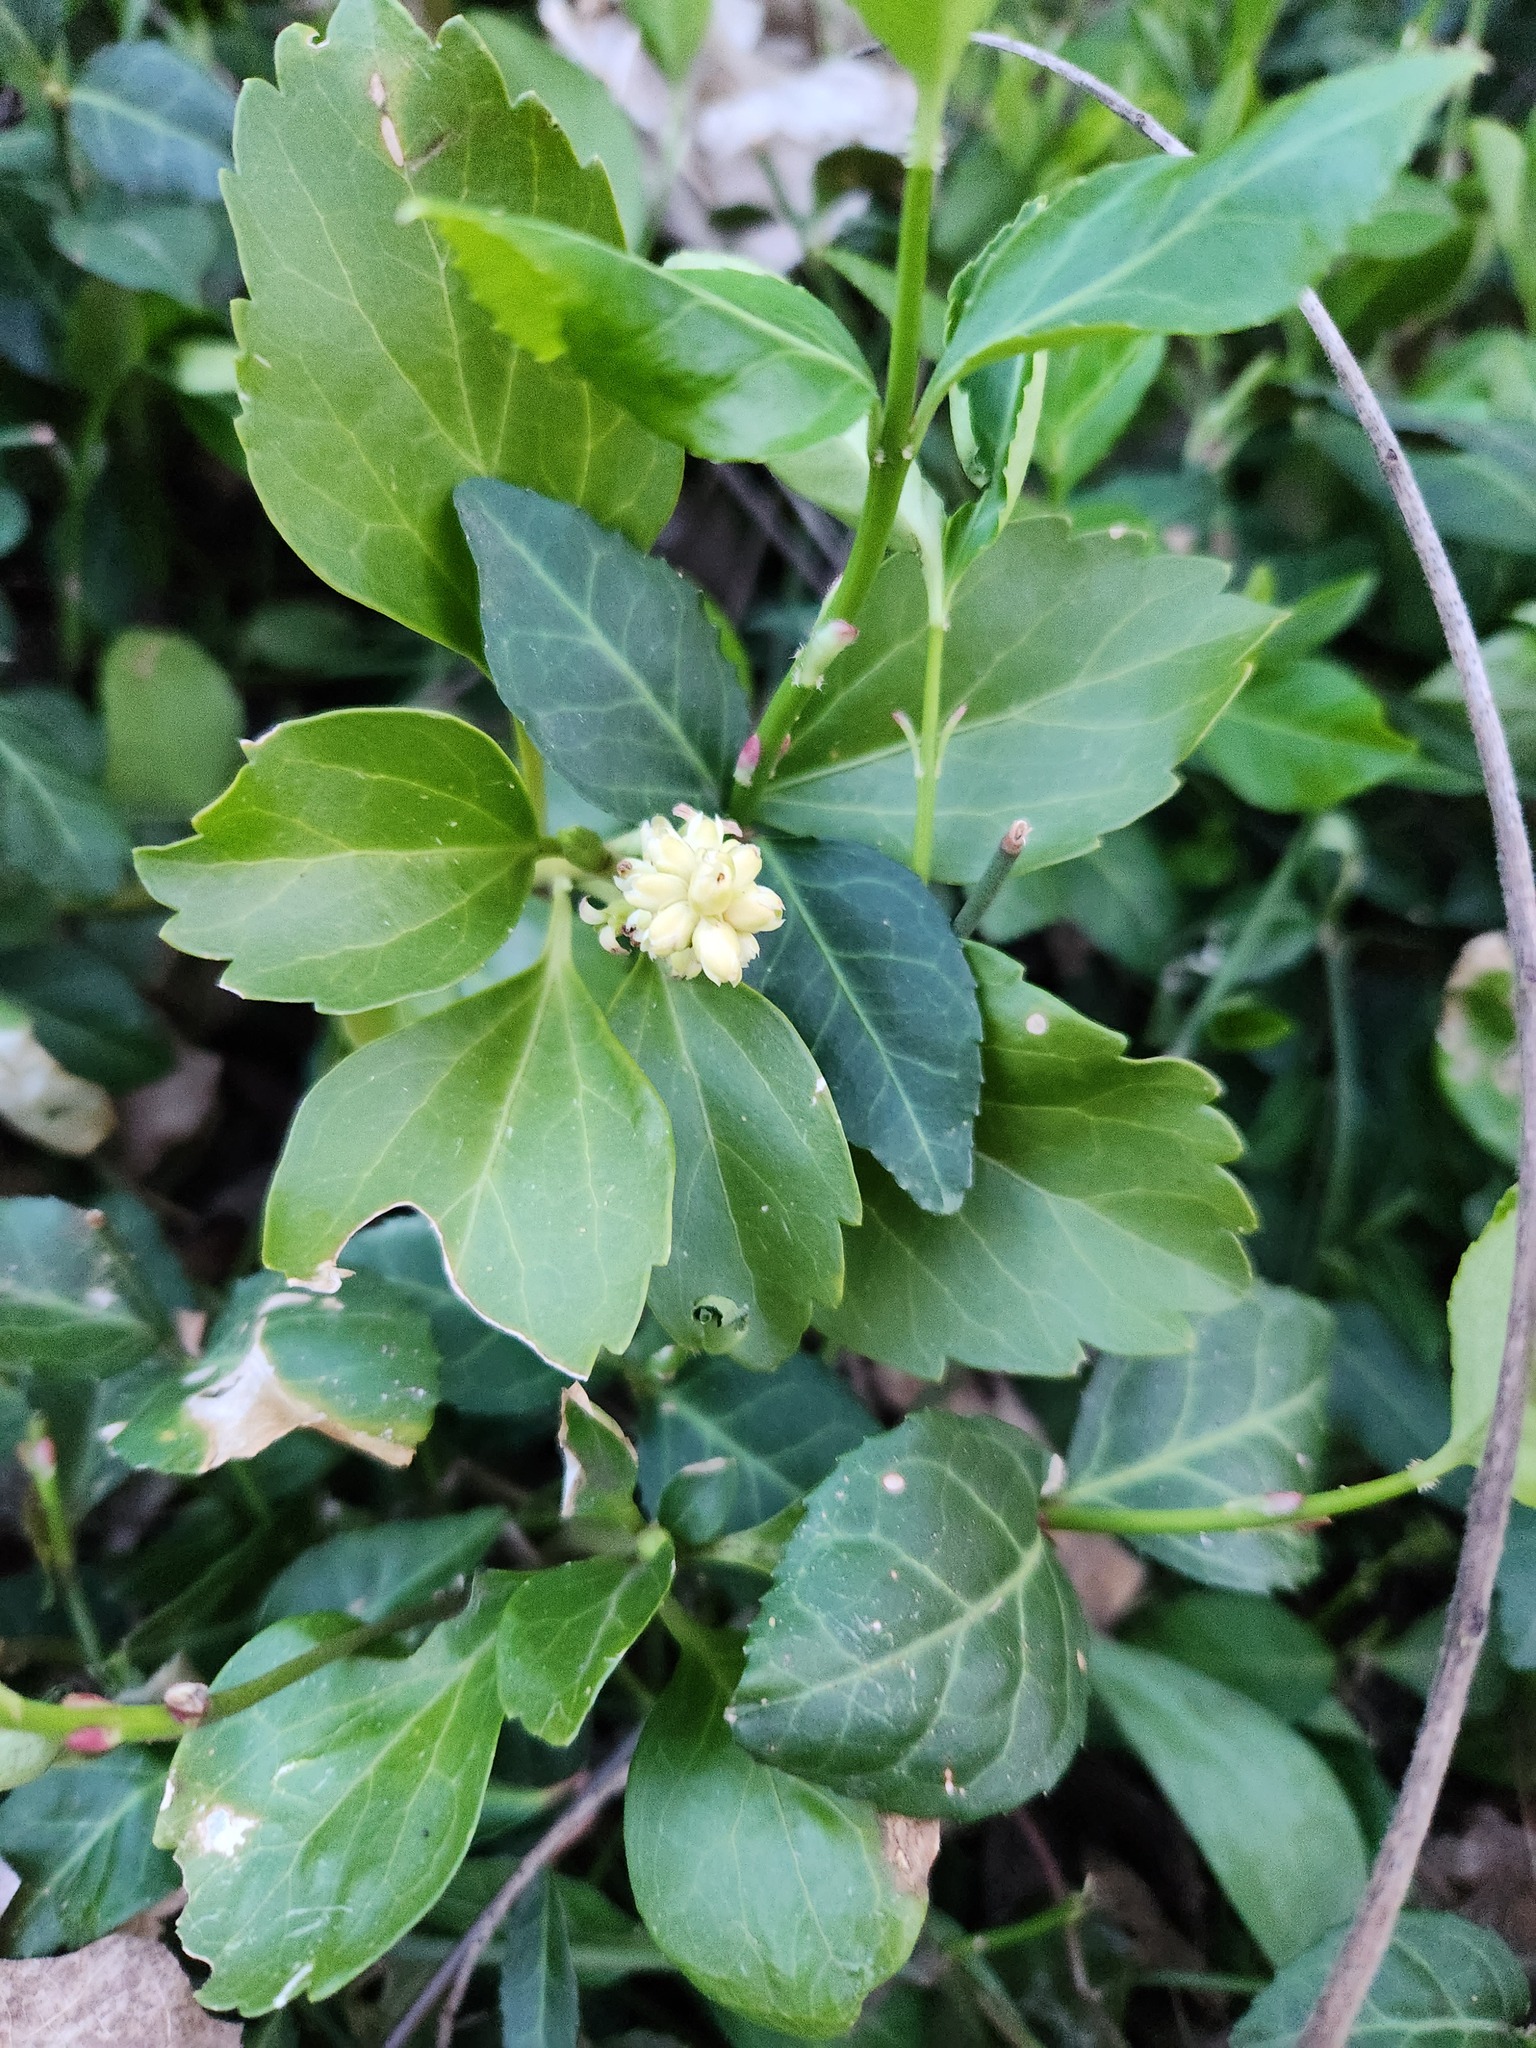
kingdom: Plantae
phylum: Tracheophyta
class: Magnoliopsida
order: Buxales
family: Buxaceae
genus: Pachysandra
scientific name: Pachysandra terminalis
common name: Japanese pachysandra
